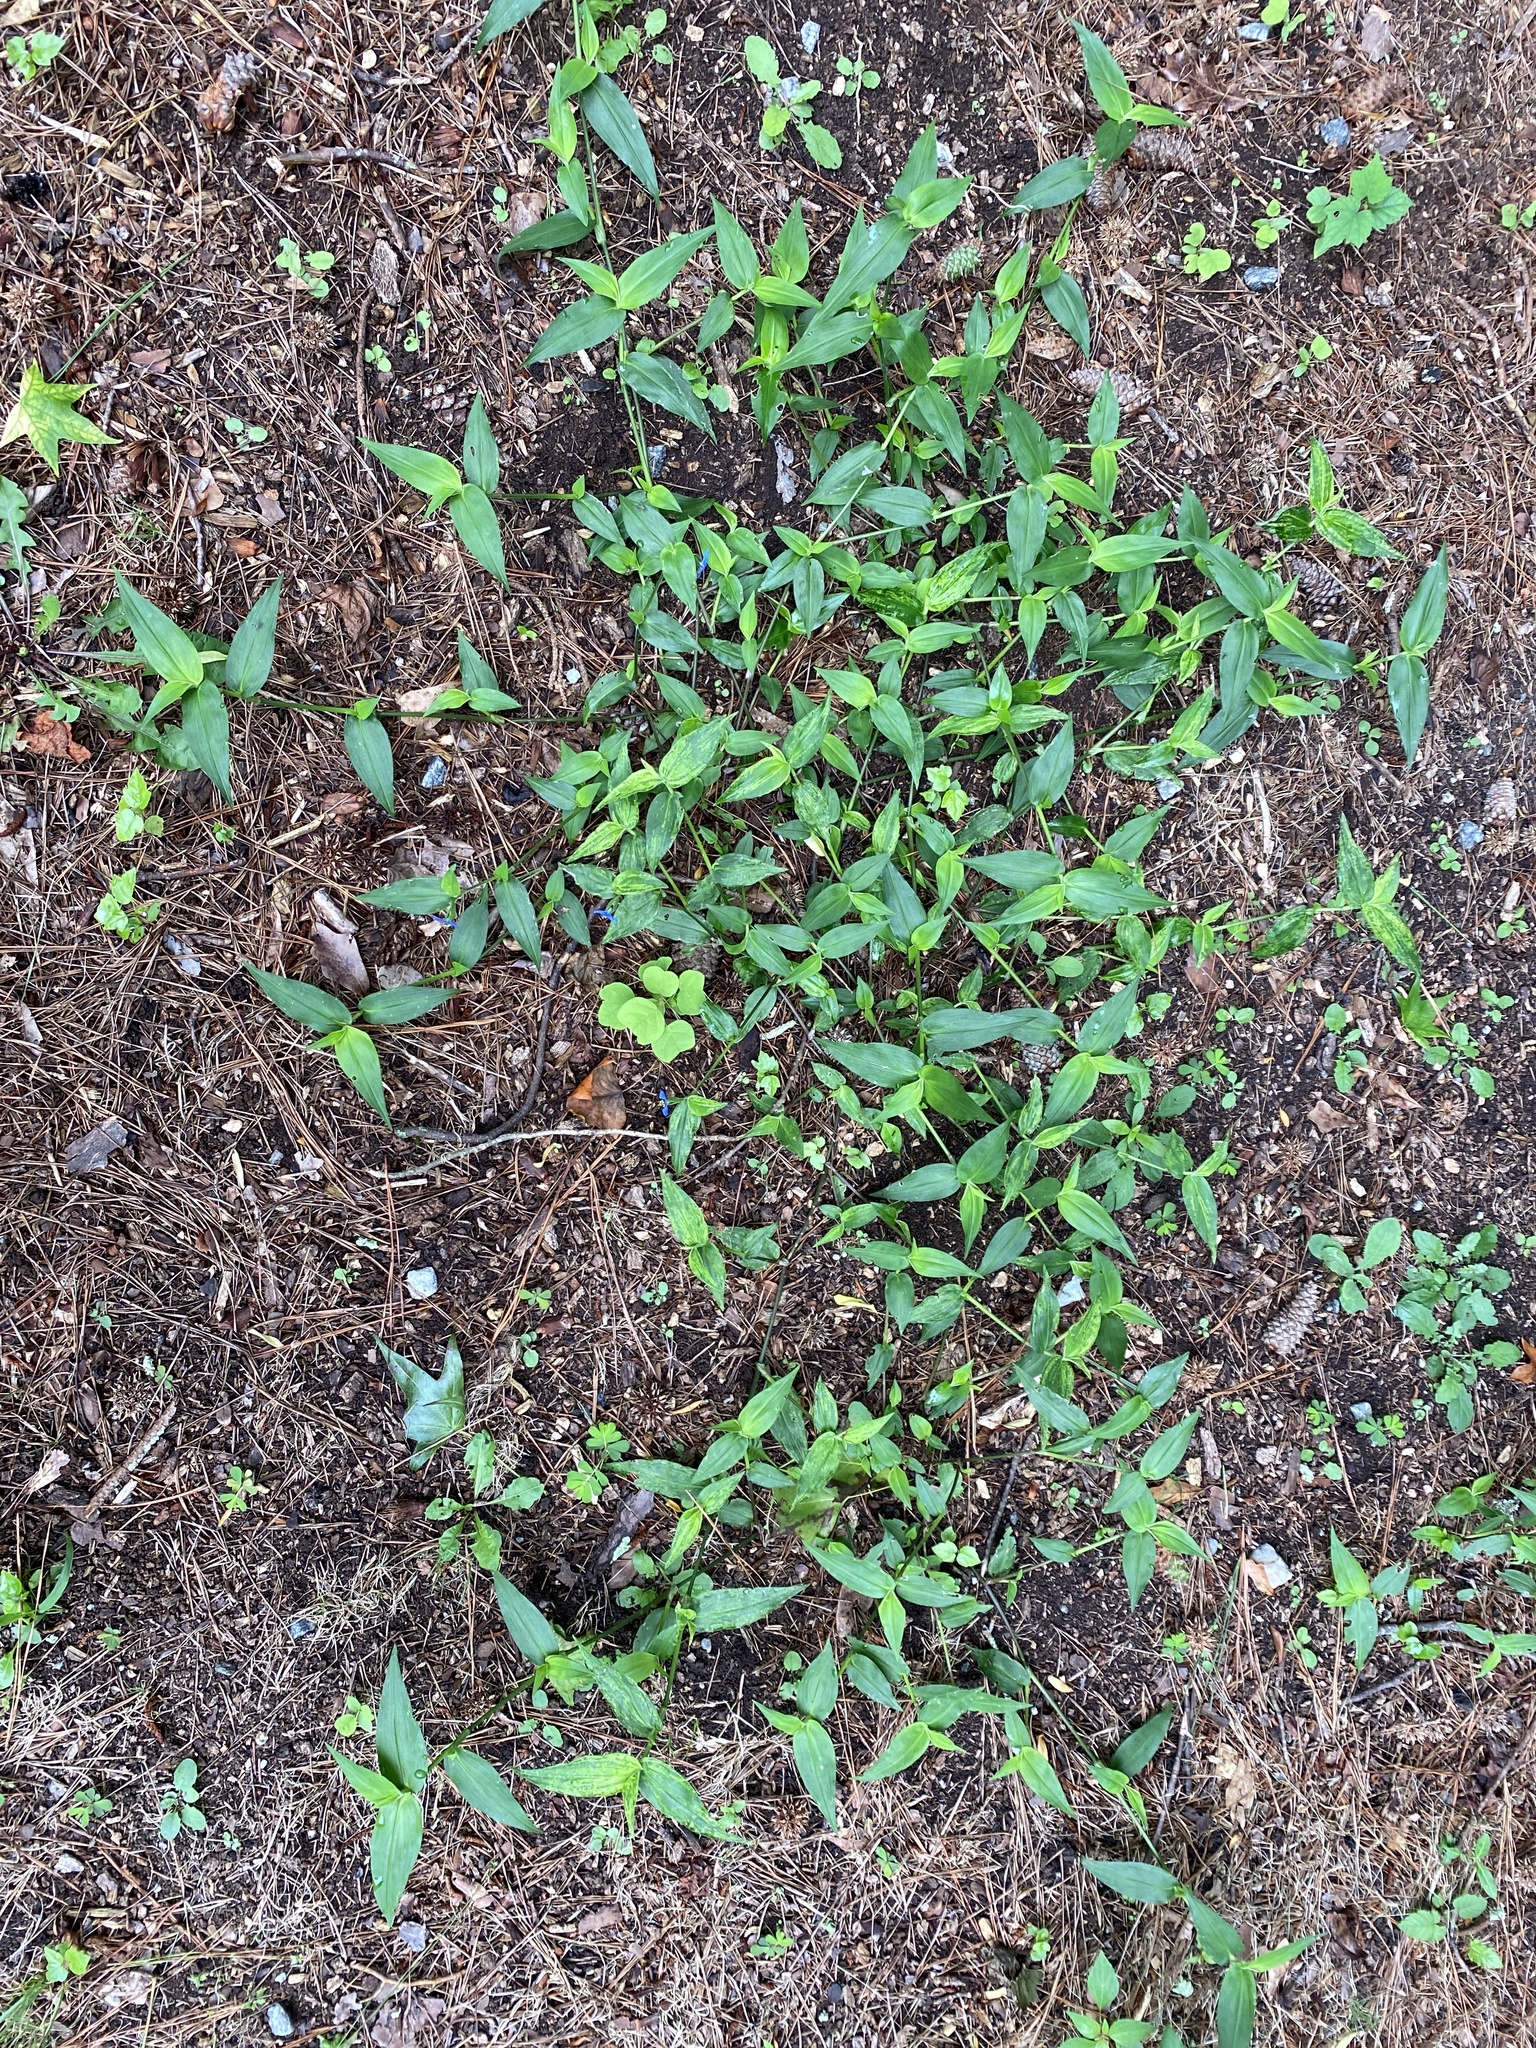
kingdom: Plantae
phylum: Tracheophyta
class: Liliopsida
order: Commelinales
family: Commelinaceae
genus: Commelina
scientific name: Commelina communis
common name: Asiatic dayflower
